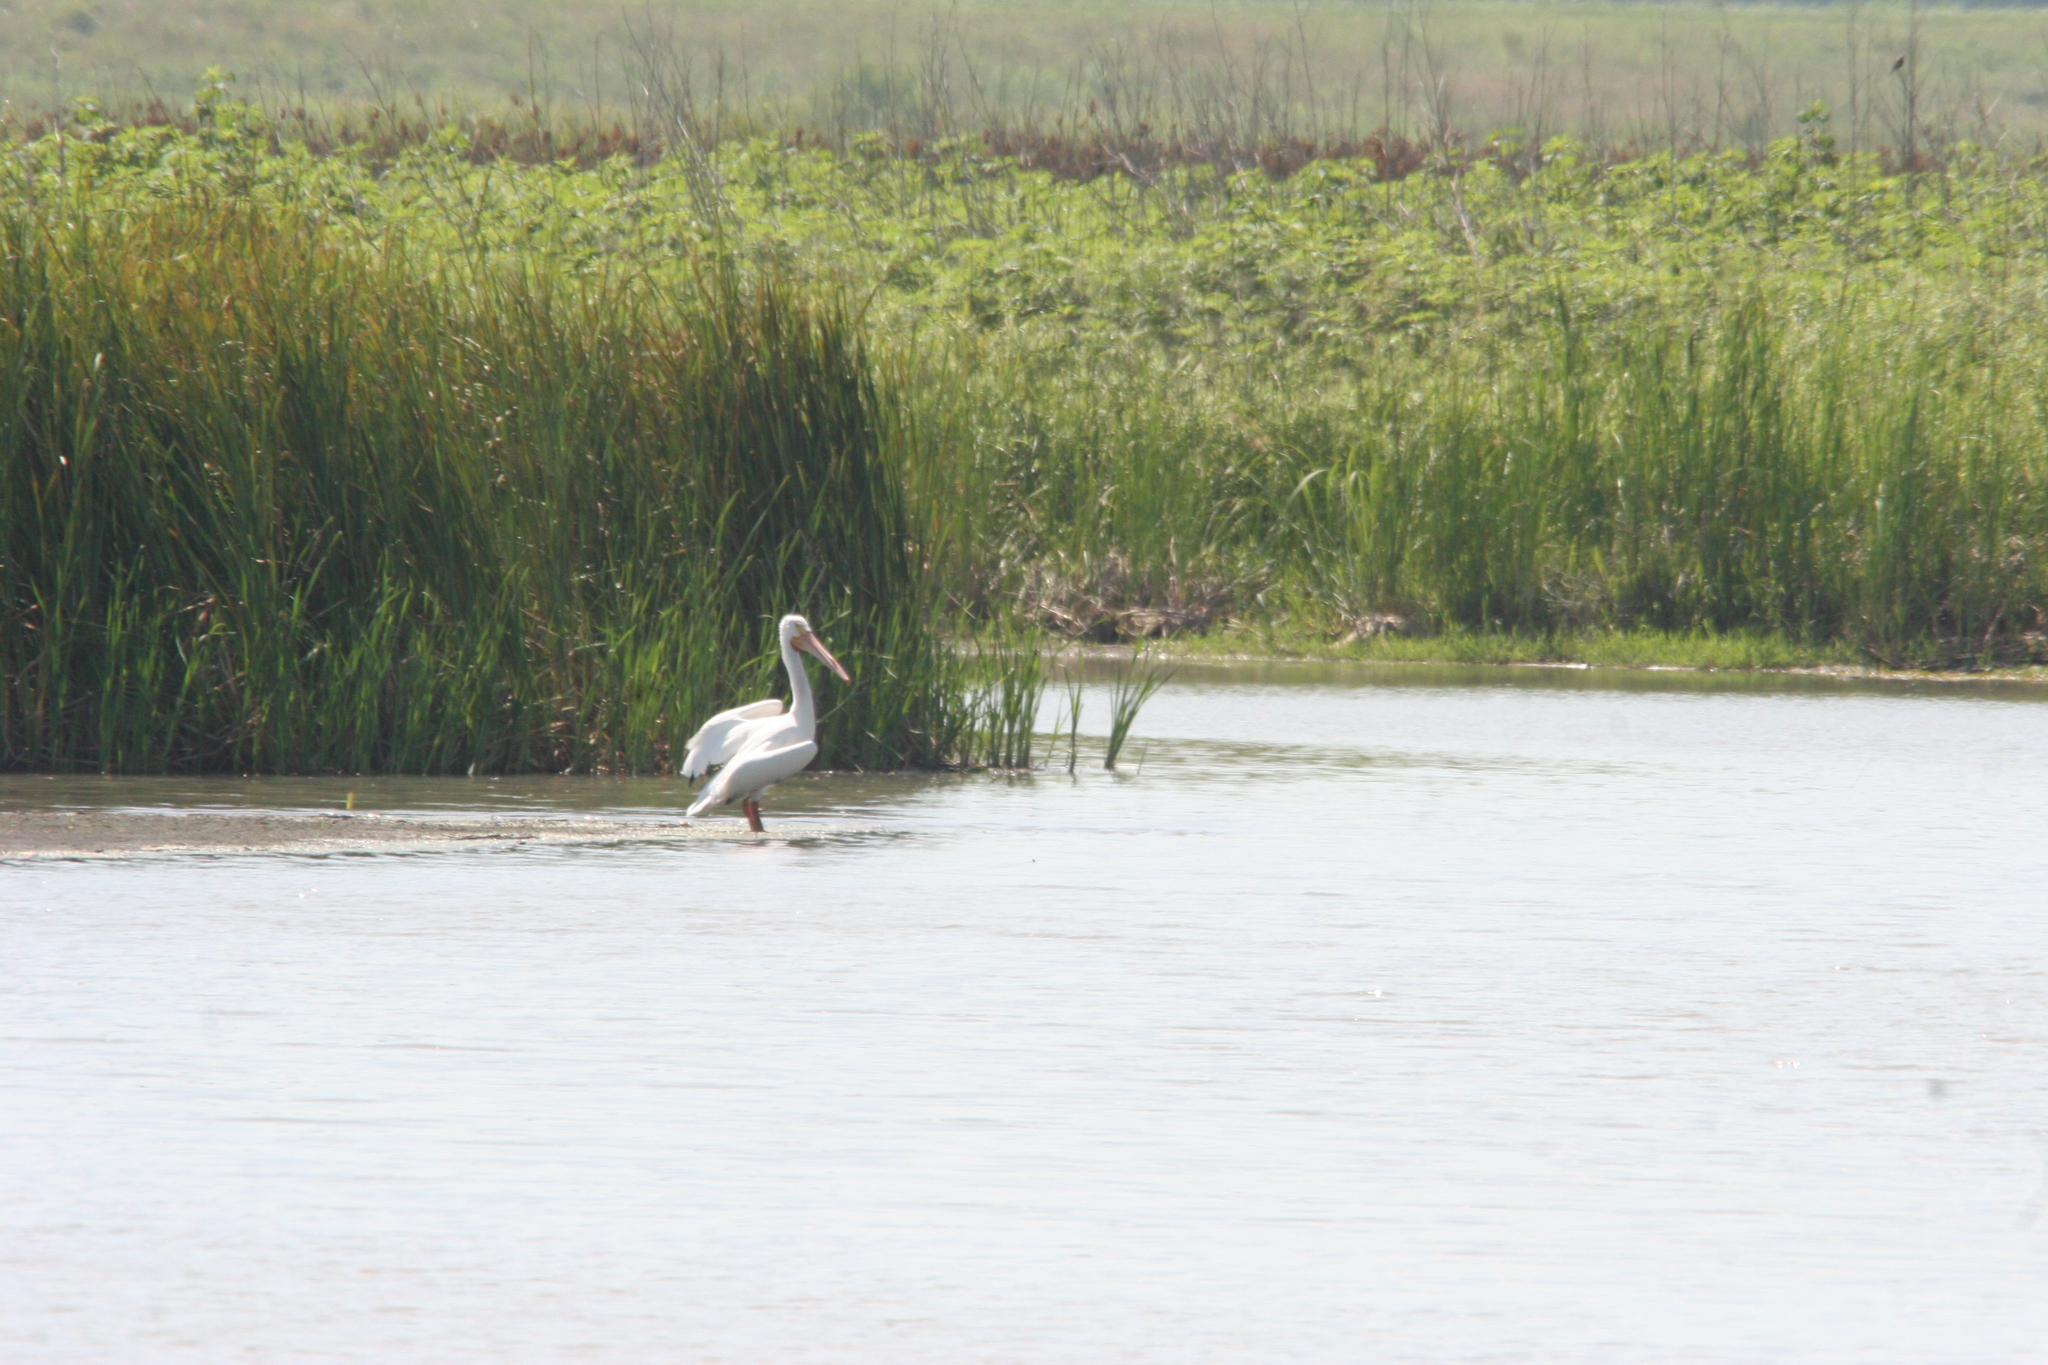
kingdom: Animalia
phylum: Chordata
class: Aves
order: Pelecaniformes
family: Pelecanidae
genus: Pelecanus
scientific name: Pelecanus erythrorhynchos
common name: American white pelican
